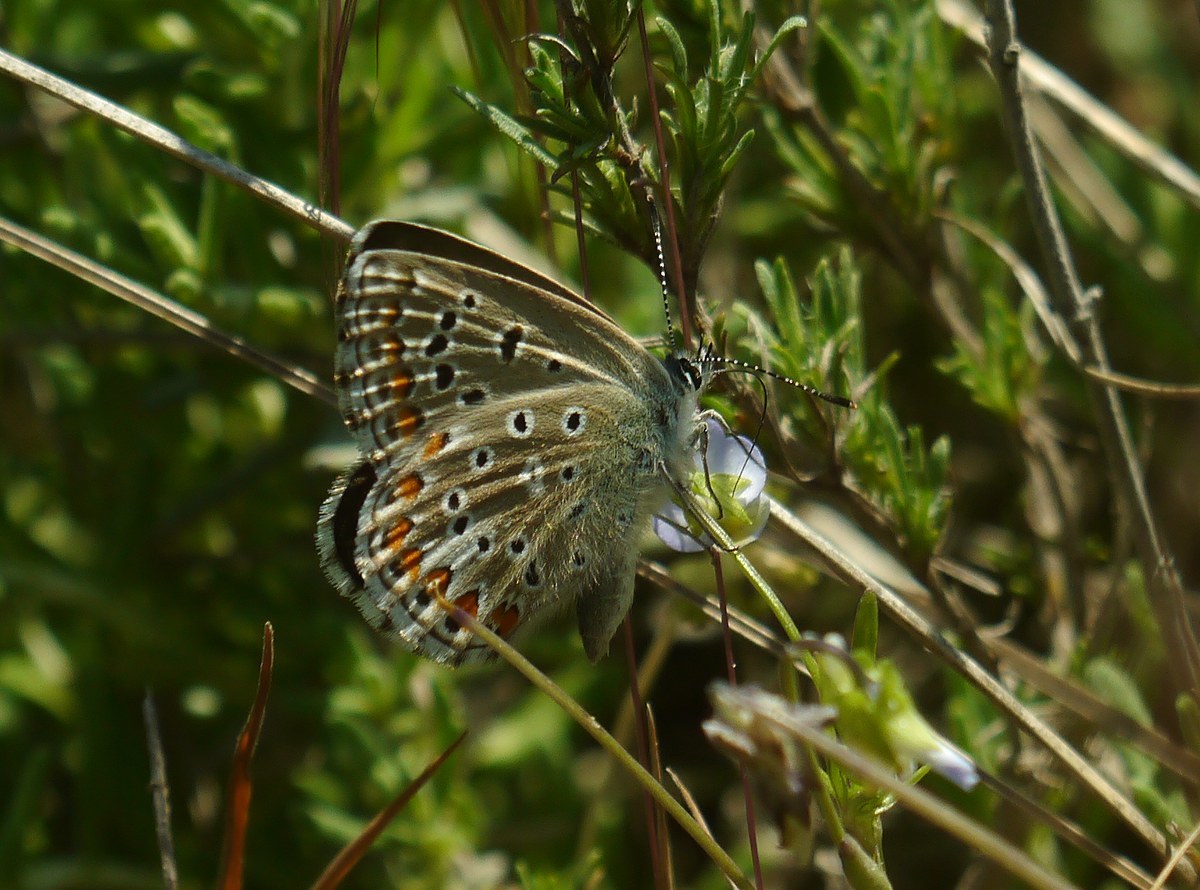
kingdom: Animalia
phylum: Arthropoda
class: Insecta
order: Lepidoptera
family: Lycaenidae
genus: Lysandra
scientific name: Lysandra bellargus
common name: Adonis blue
